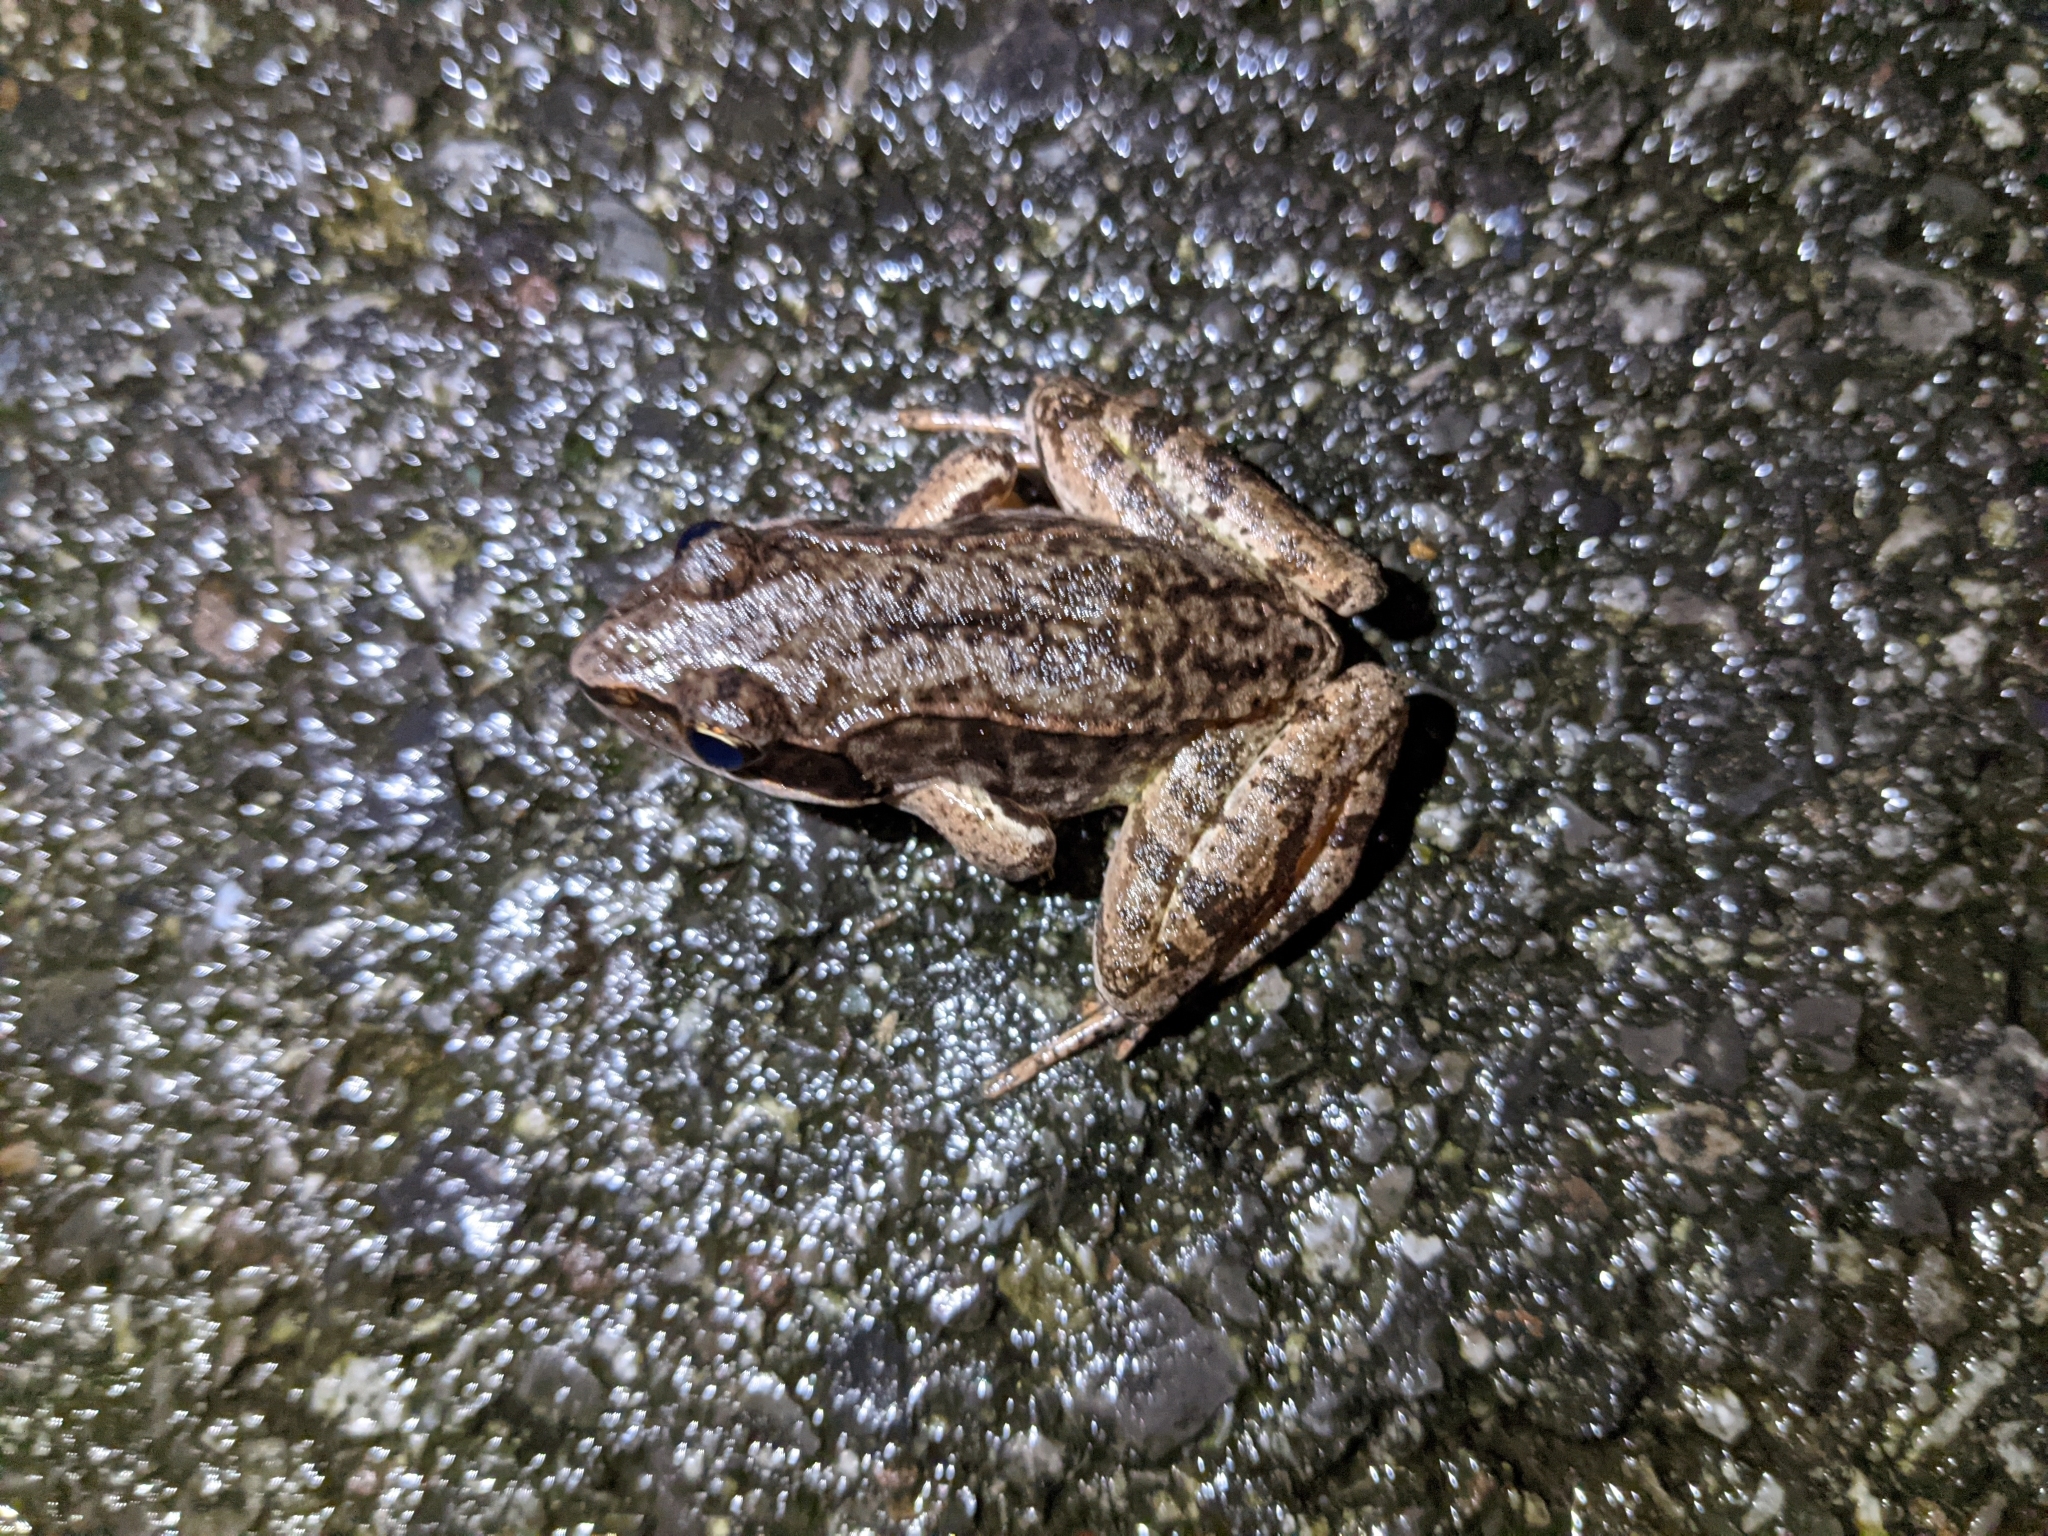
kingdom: Animalia
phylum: Chordata
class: Amphibia
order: Anura
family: Ranidae
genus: Lithobates
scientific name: Lithobates sylvaticus
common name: Wood frog
